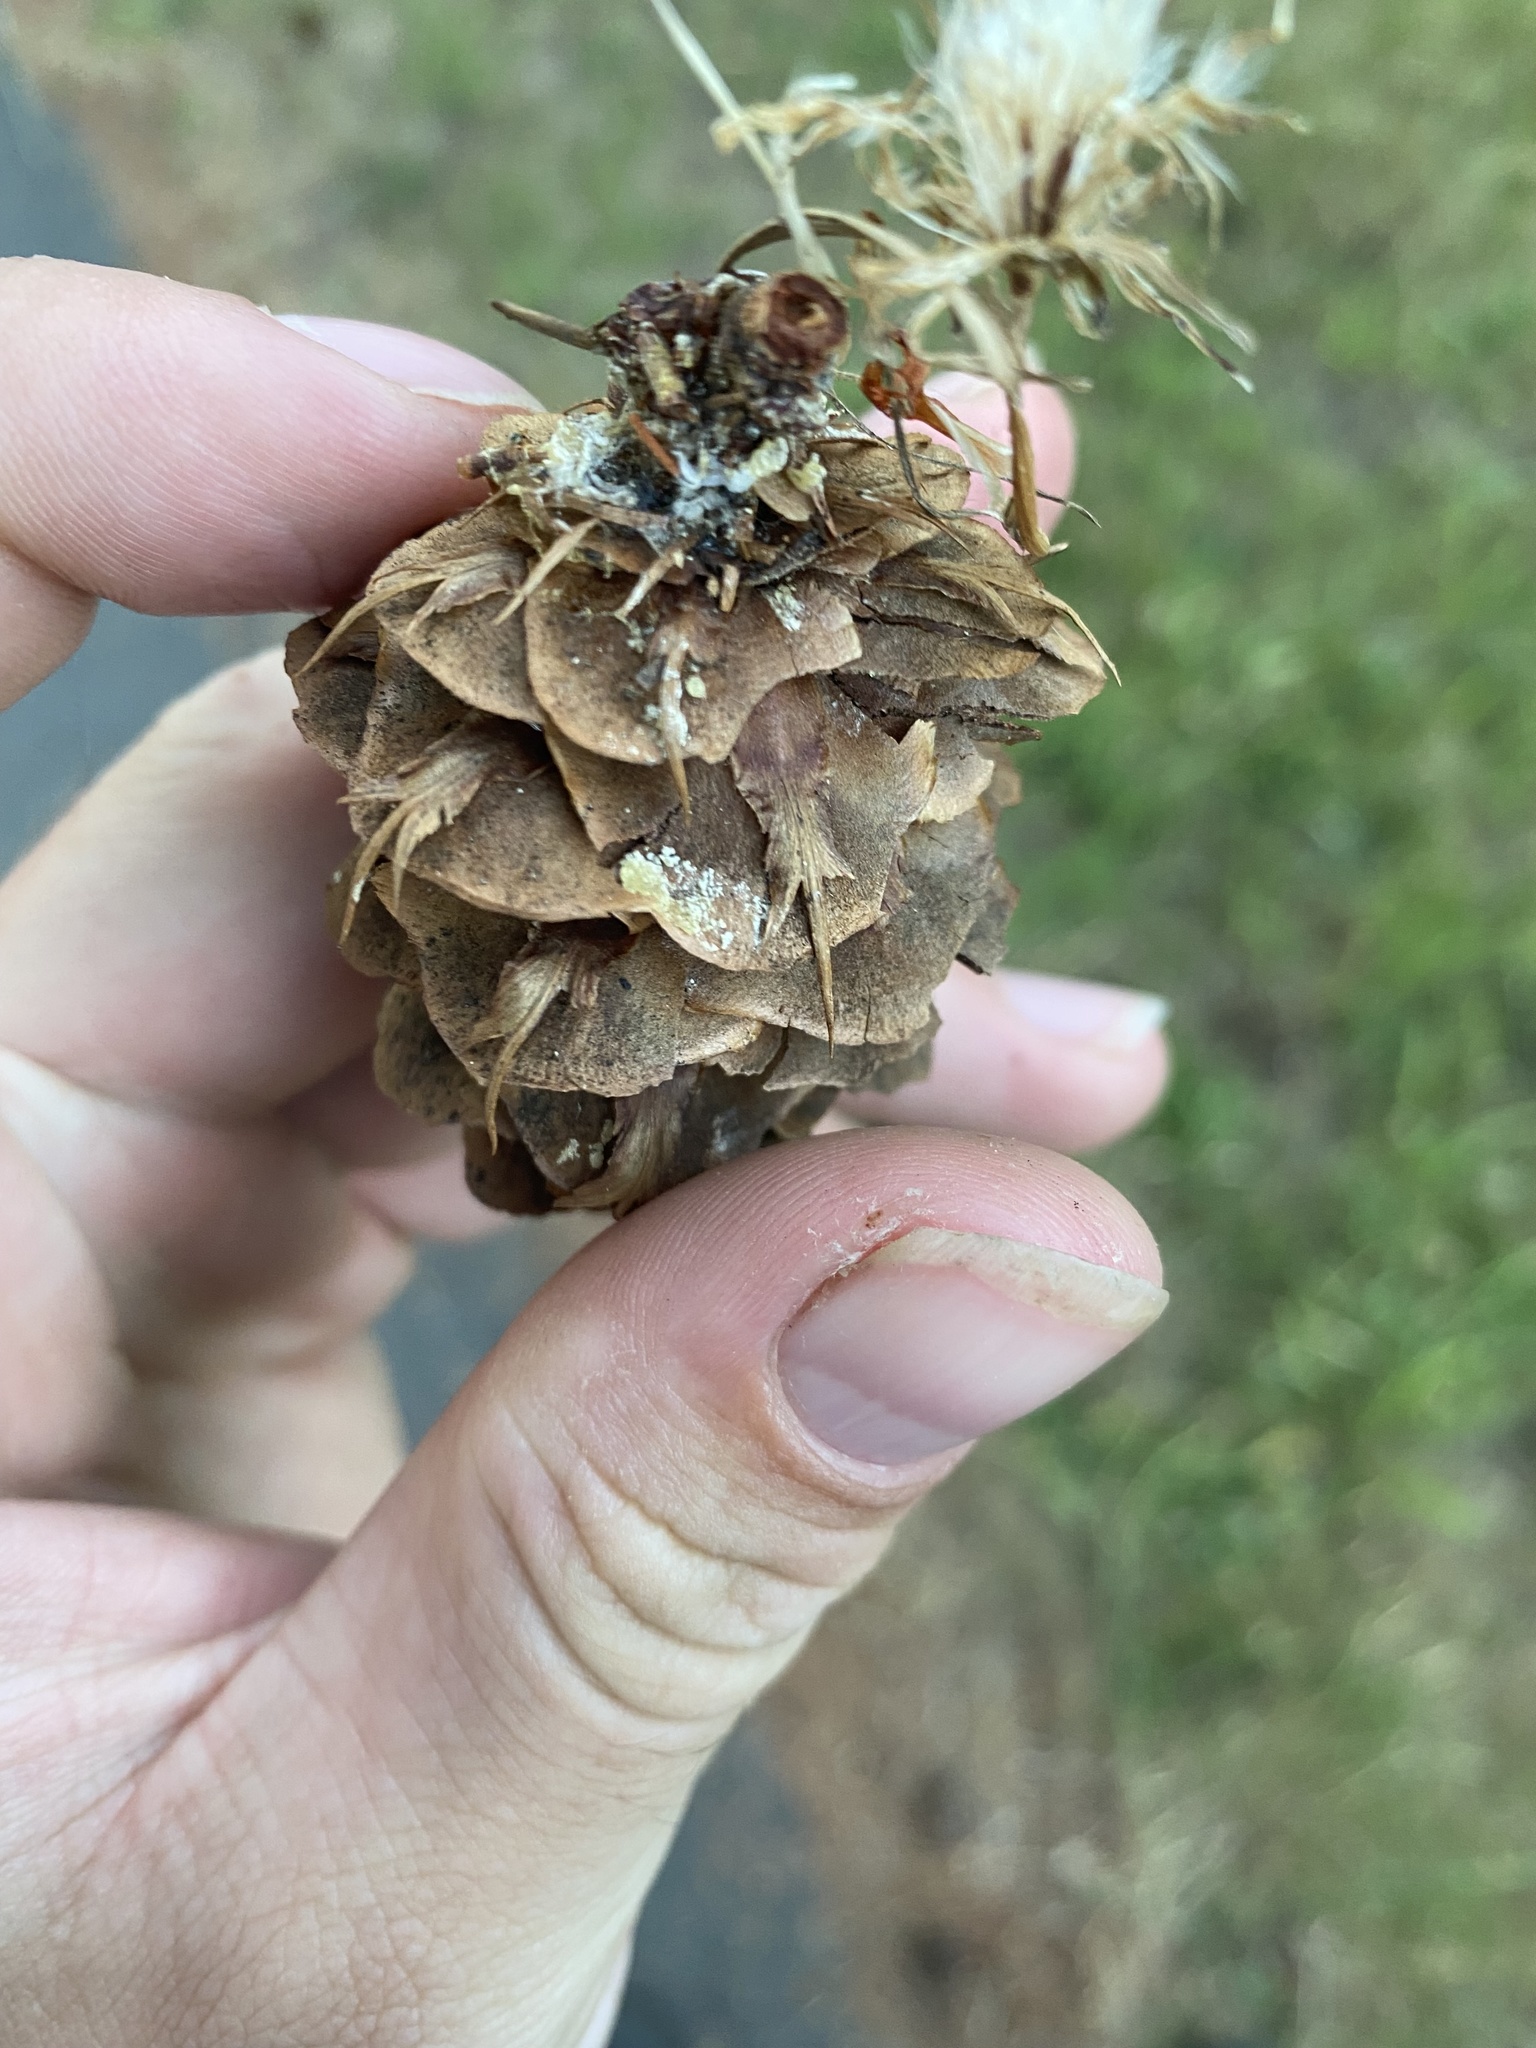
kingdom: Plantae
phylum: Tracheophyta
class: Pinopsida
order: Pinales
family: Pinaceae
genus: Pseudotsuga
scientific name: Pseudotsuga menziesii
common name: Douglas fir
